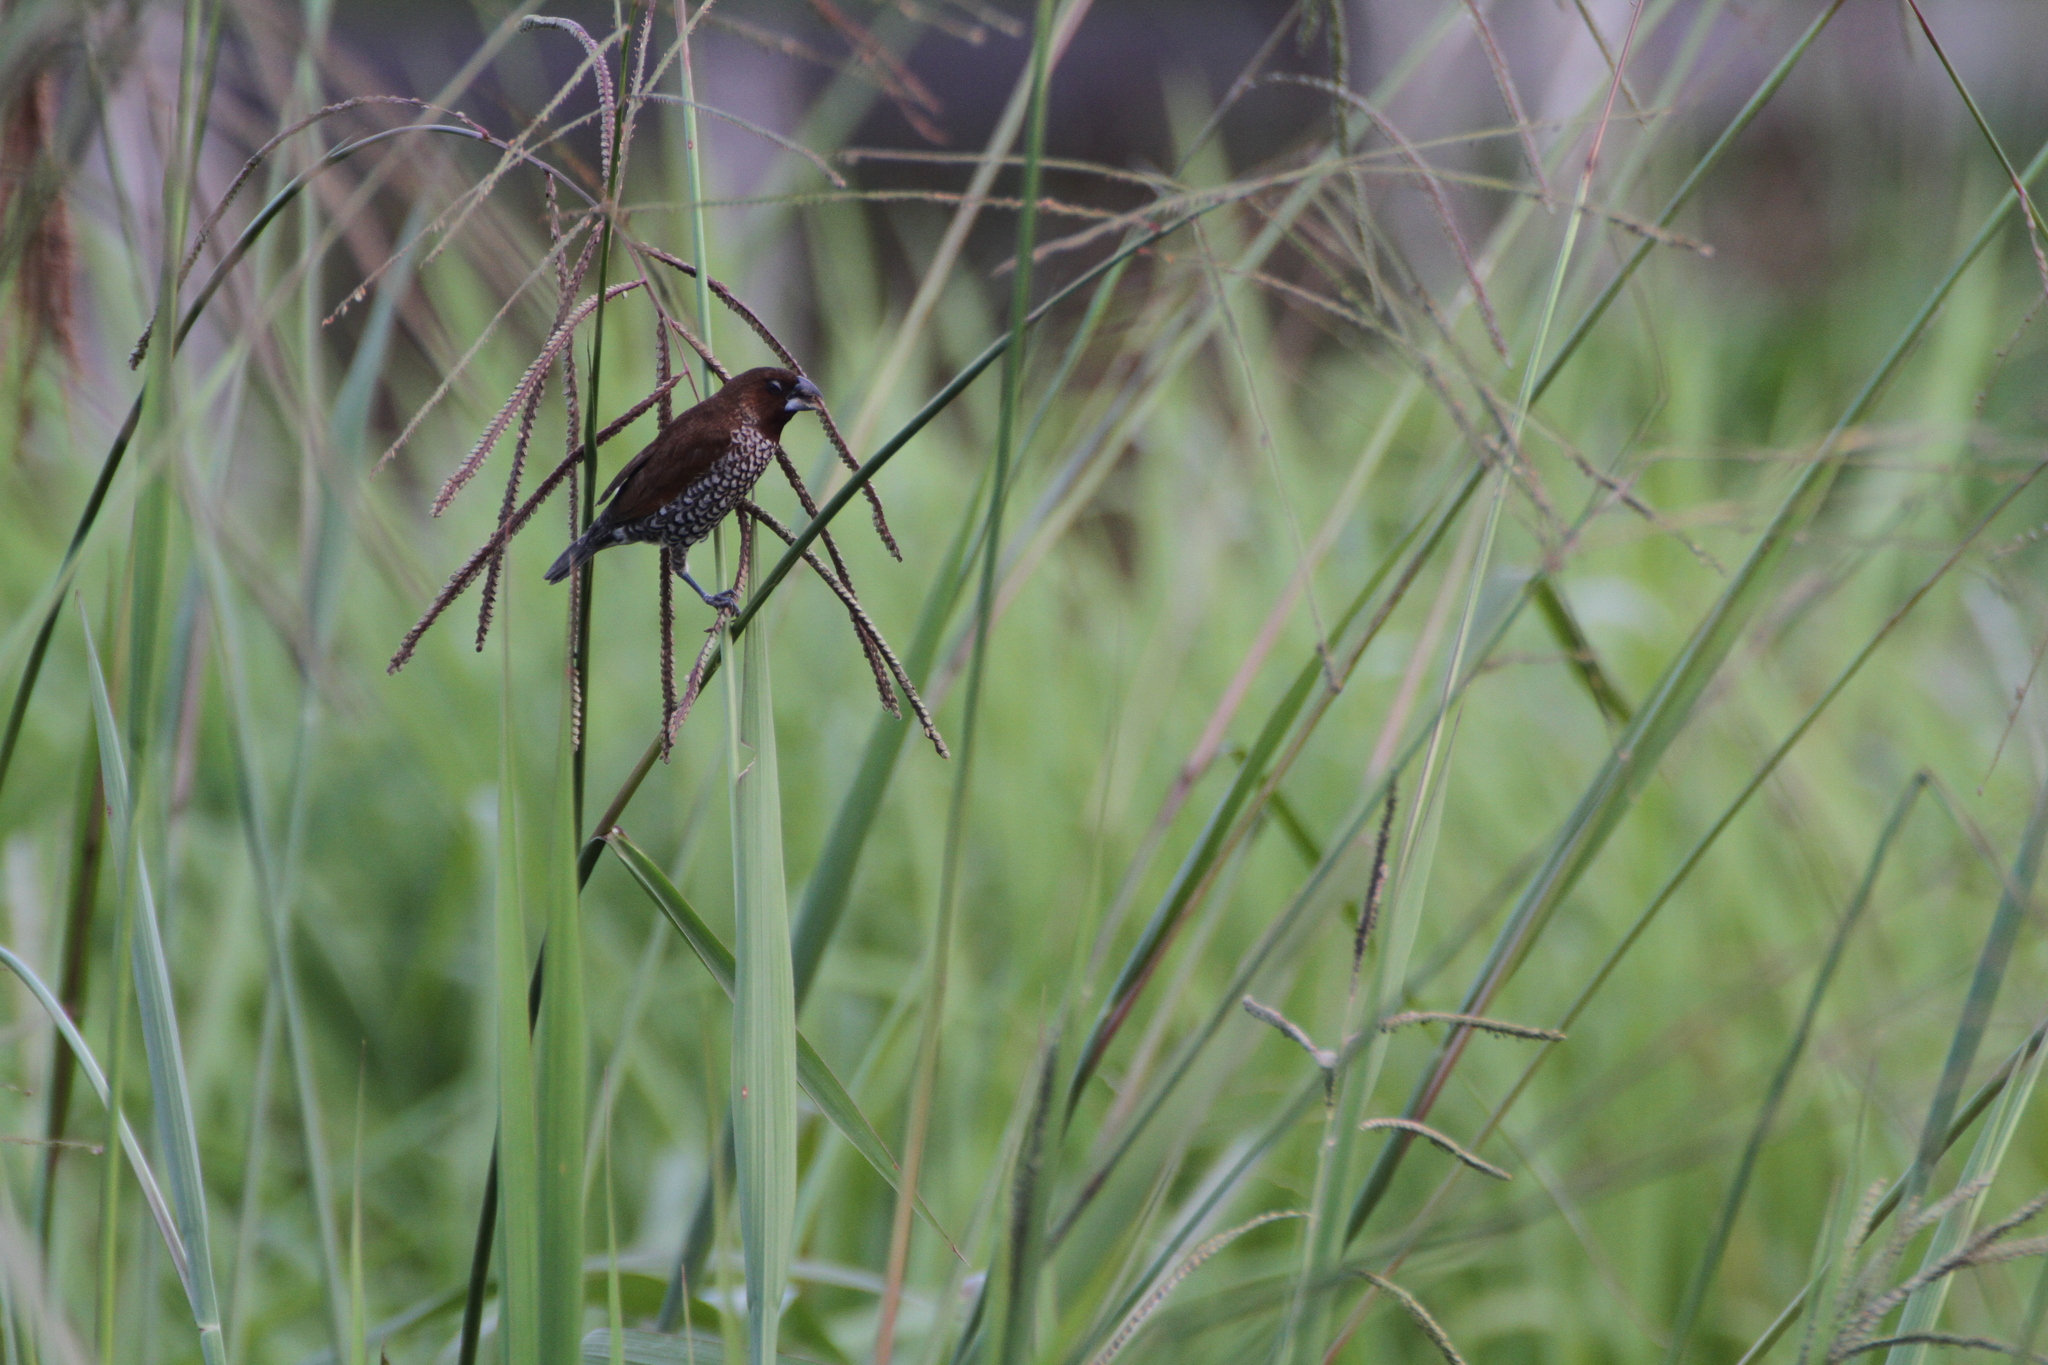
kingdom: Animalia
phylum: Chordata
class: Aves
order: Passeriformes
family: Estrildidae
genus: Lonchura
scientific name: Lonchura punctulata
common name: Scaly-breasted munia
